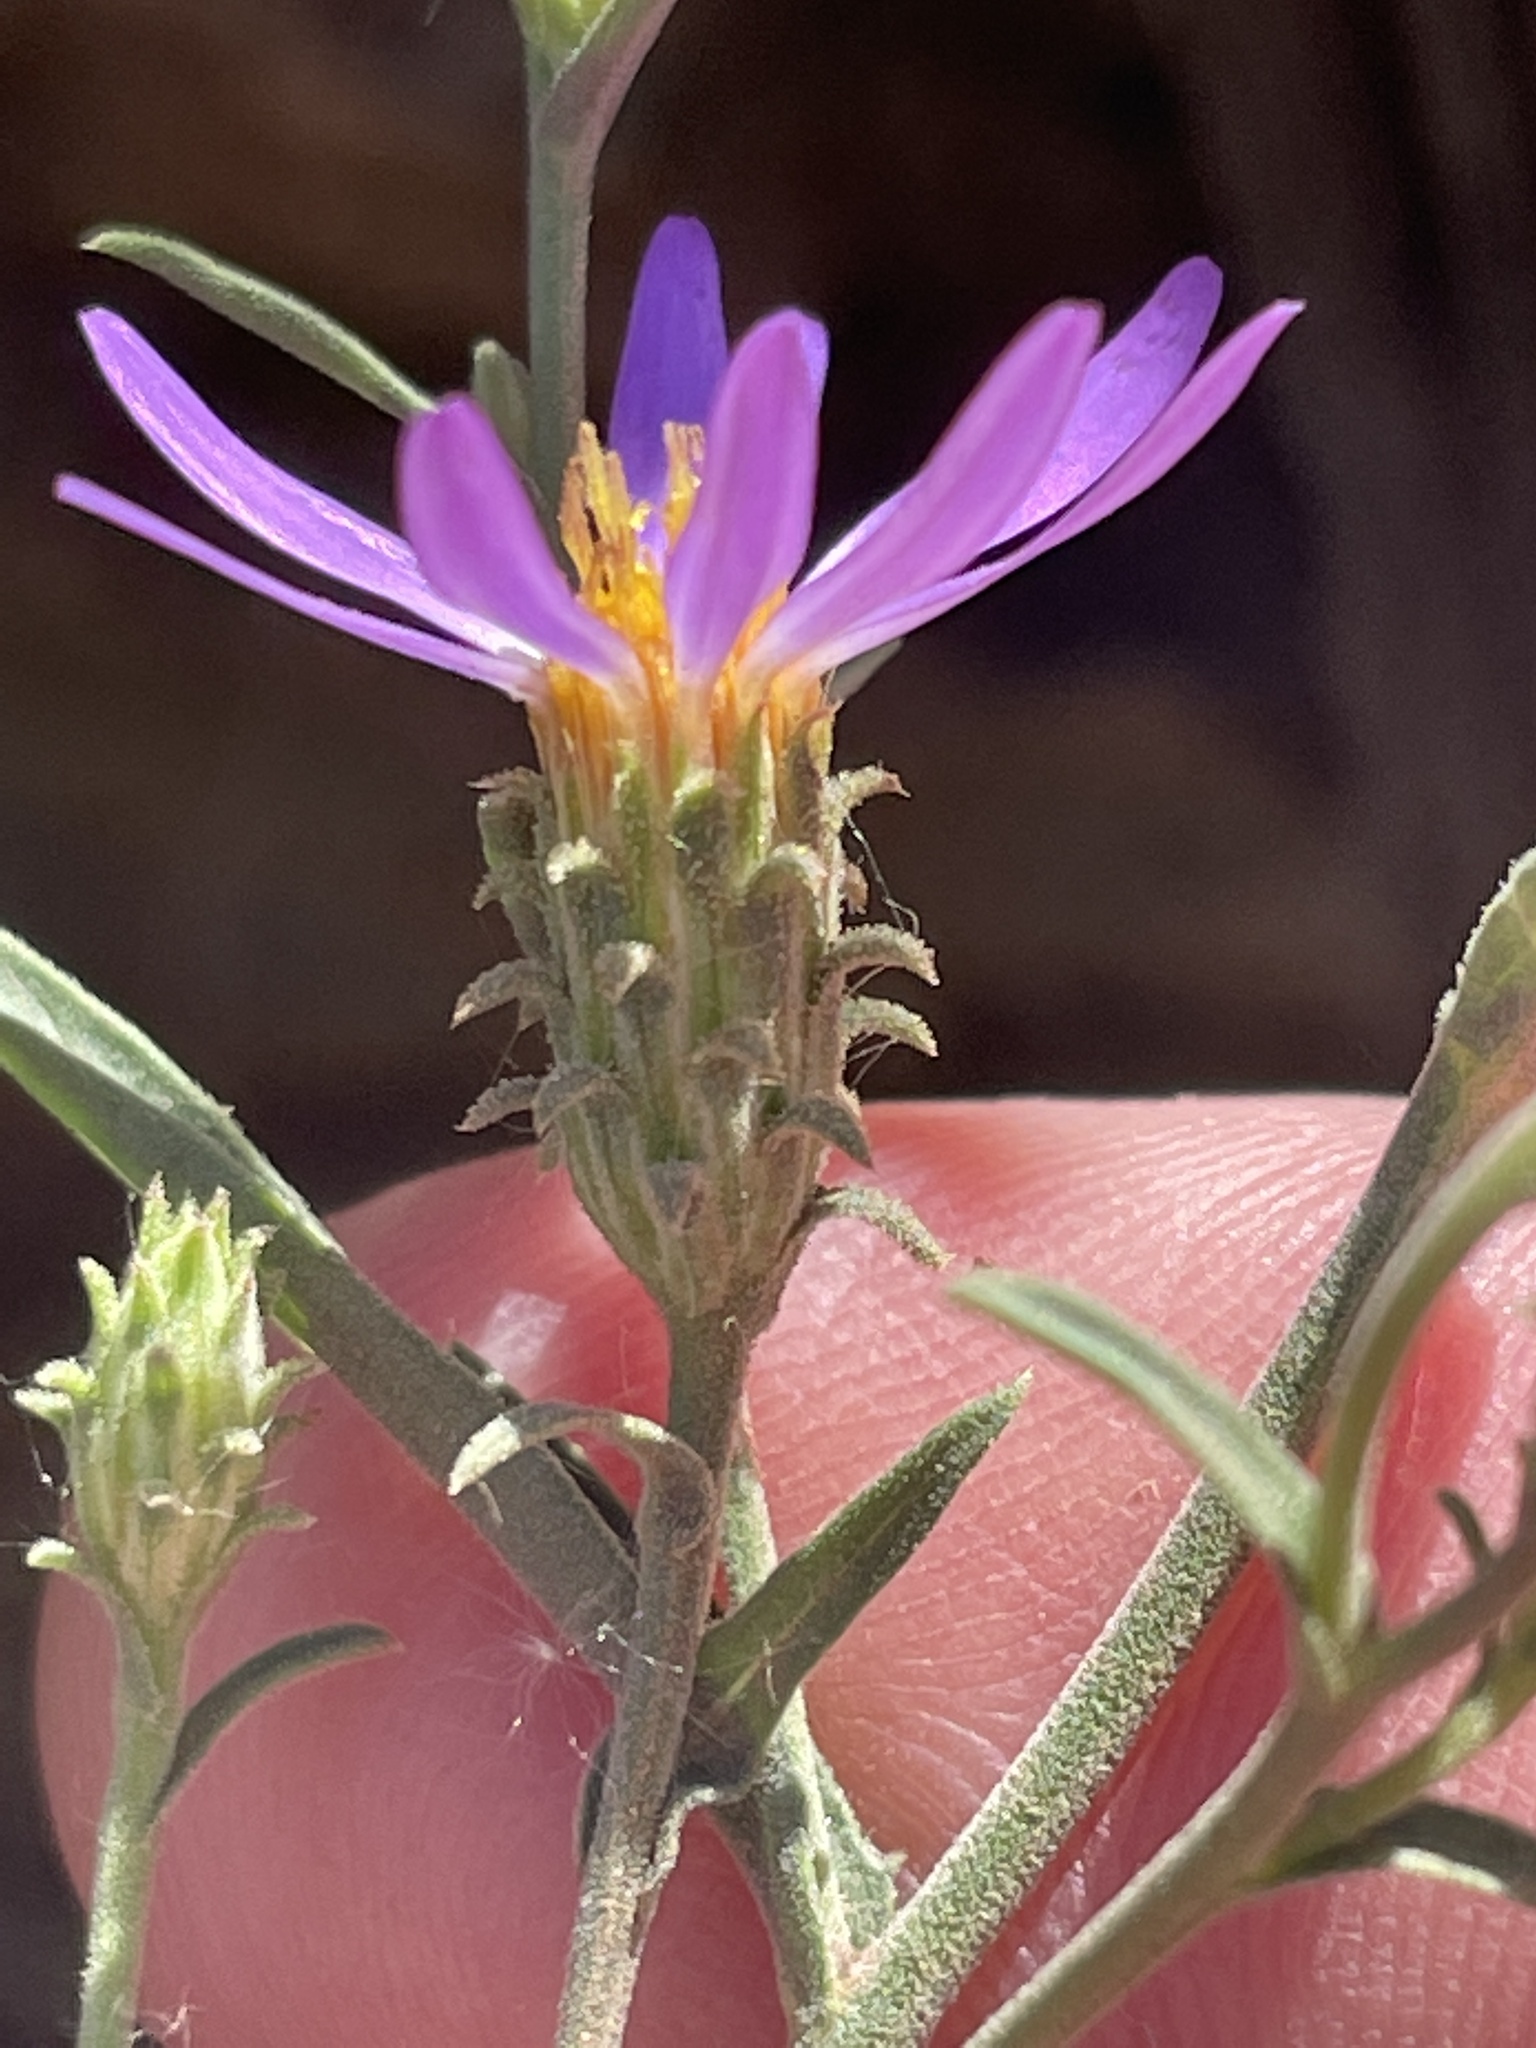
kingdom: Plantae
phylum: Tracheophyta
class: Magnoliopsida
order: Asterales
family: Asteraceae
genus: Dieteria
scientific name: Dieteria canescens
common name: Hoary-aster
